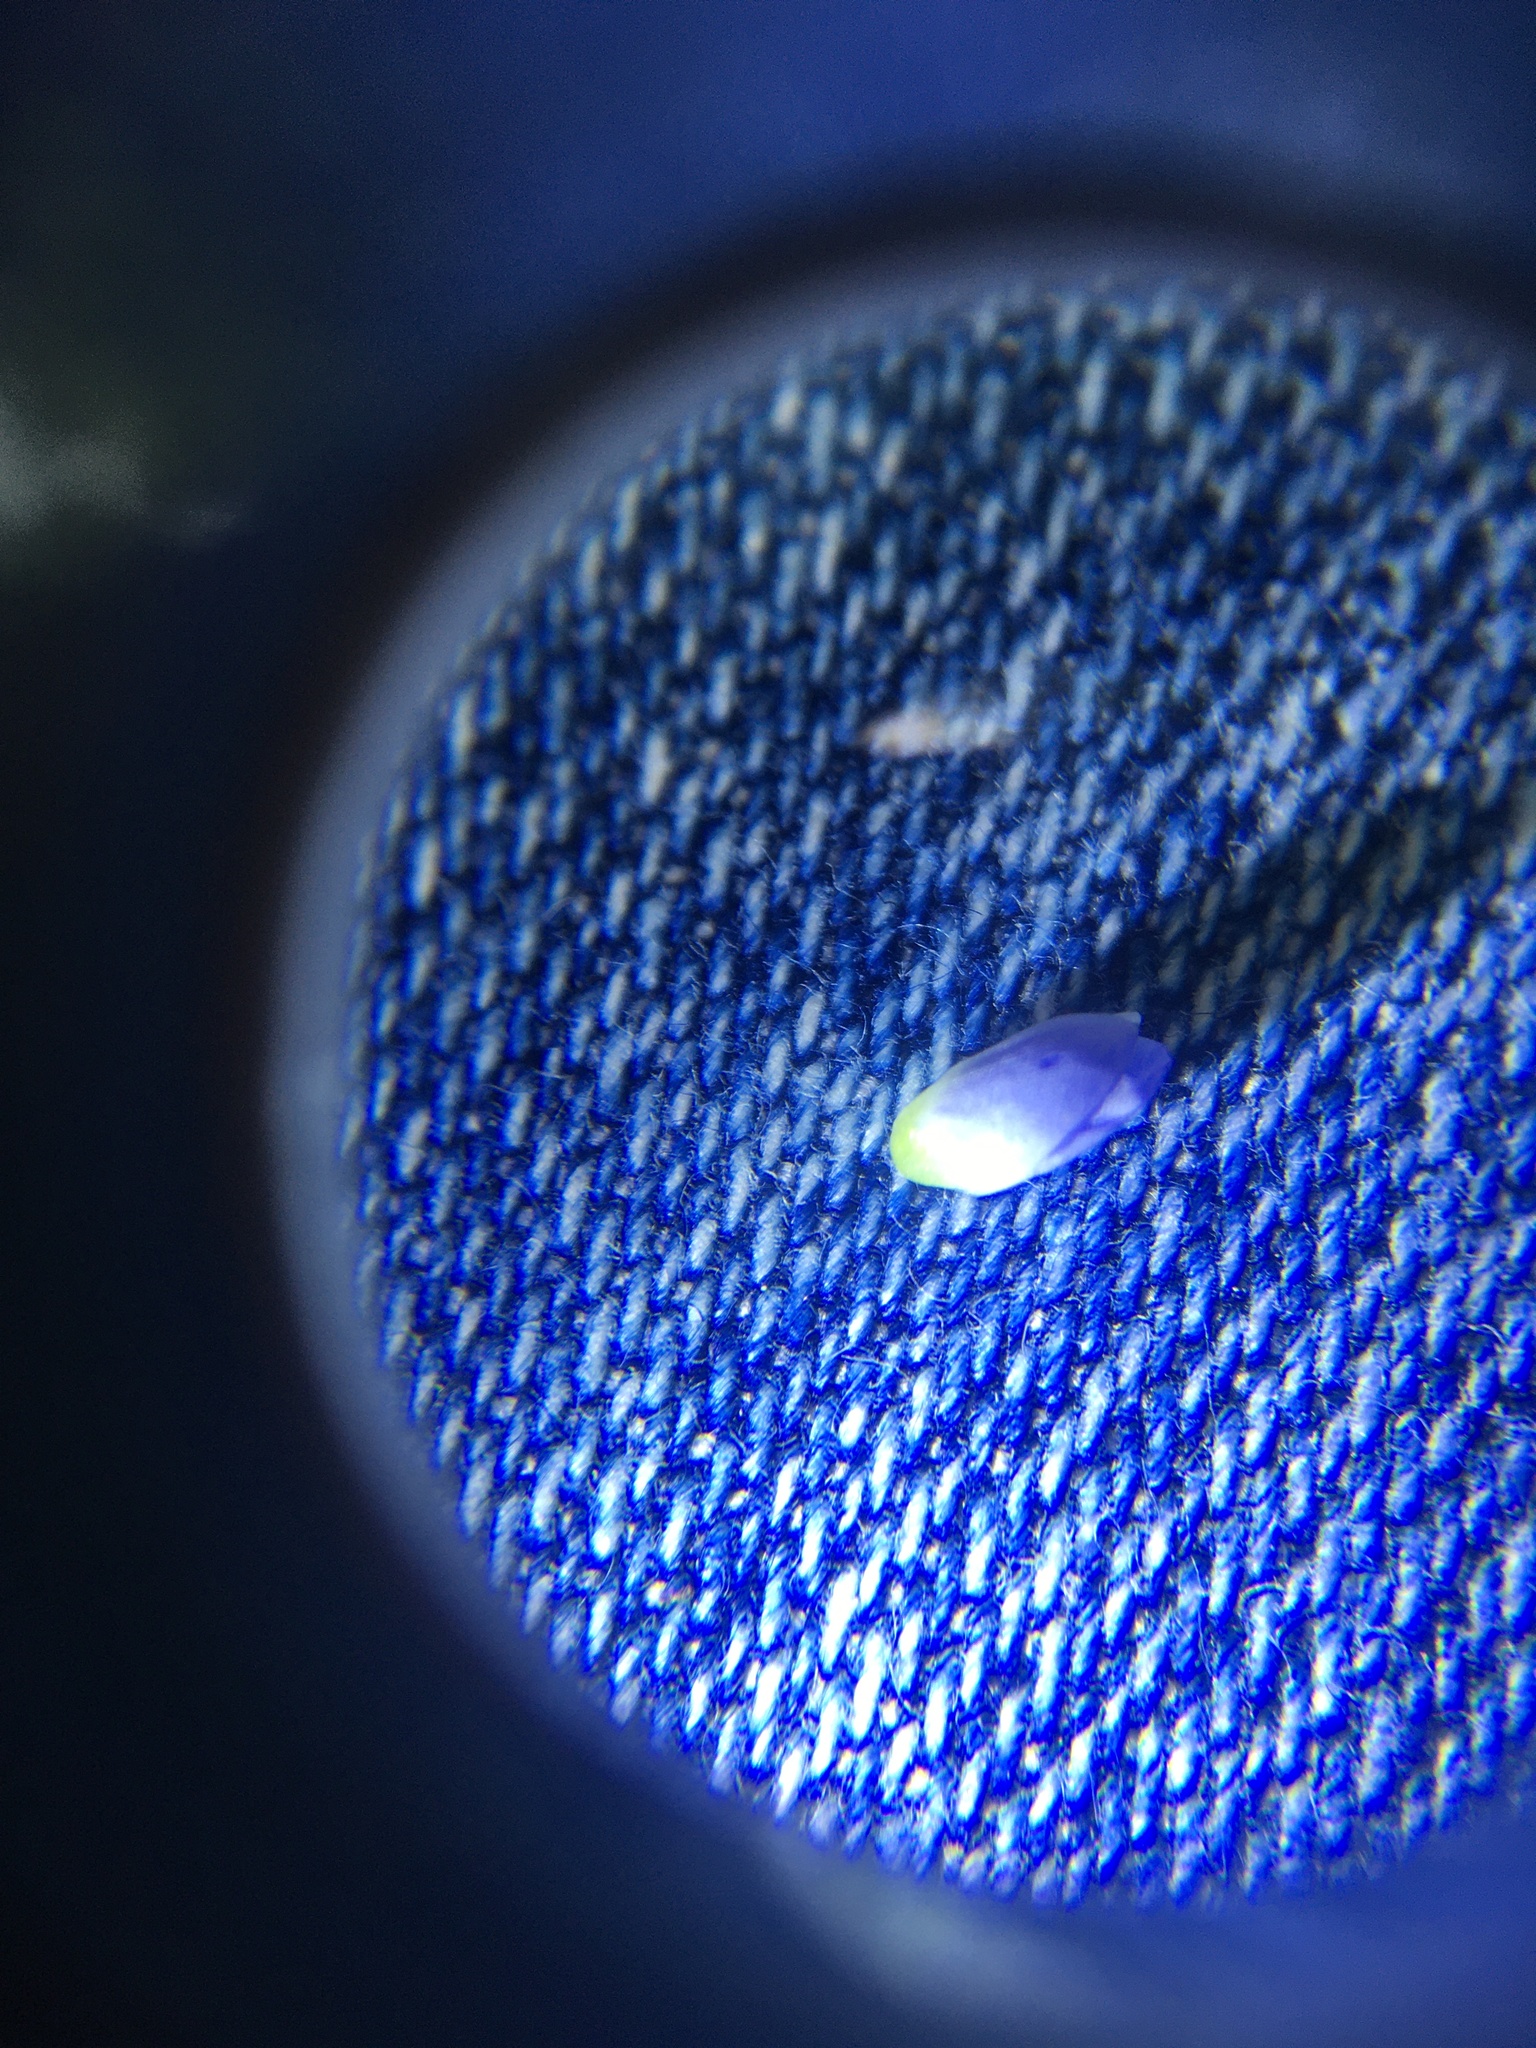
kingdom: Plantae
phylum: Tracheophyta
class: Magnoliopsida
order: Lamiales
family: Plantaginaceae
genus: Veronica
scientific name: Veronica persica
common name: Common field-speedwell
